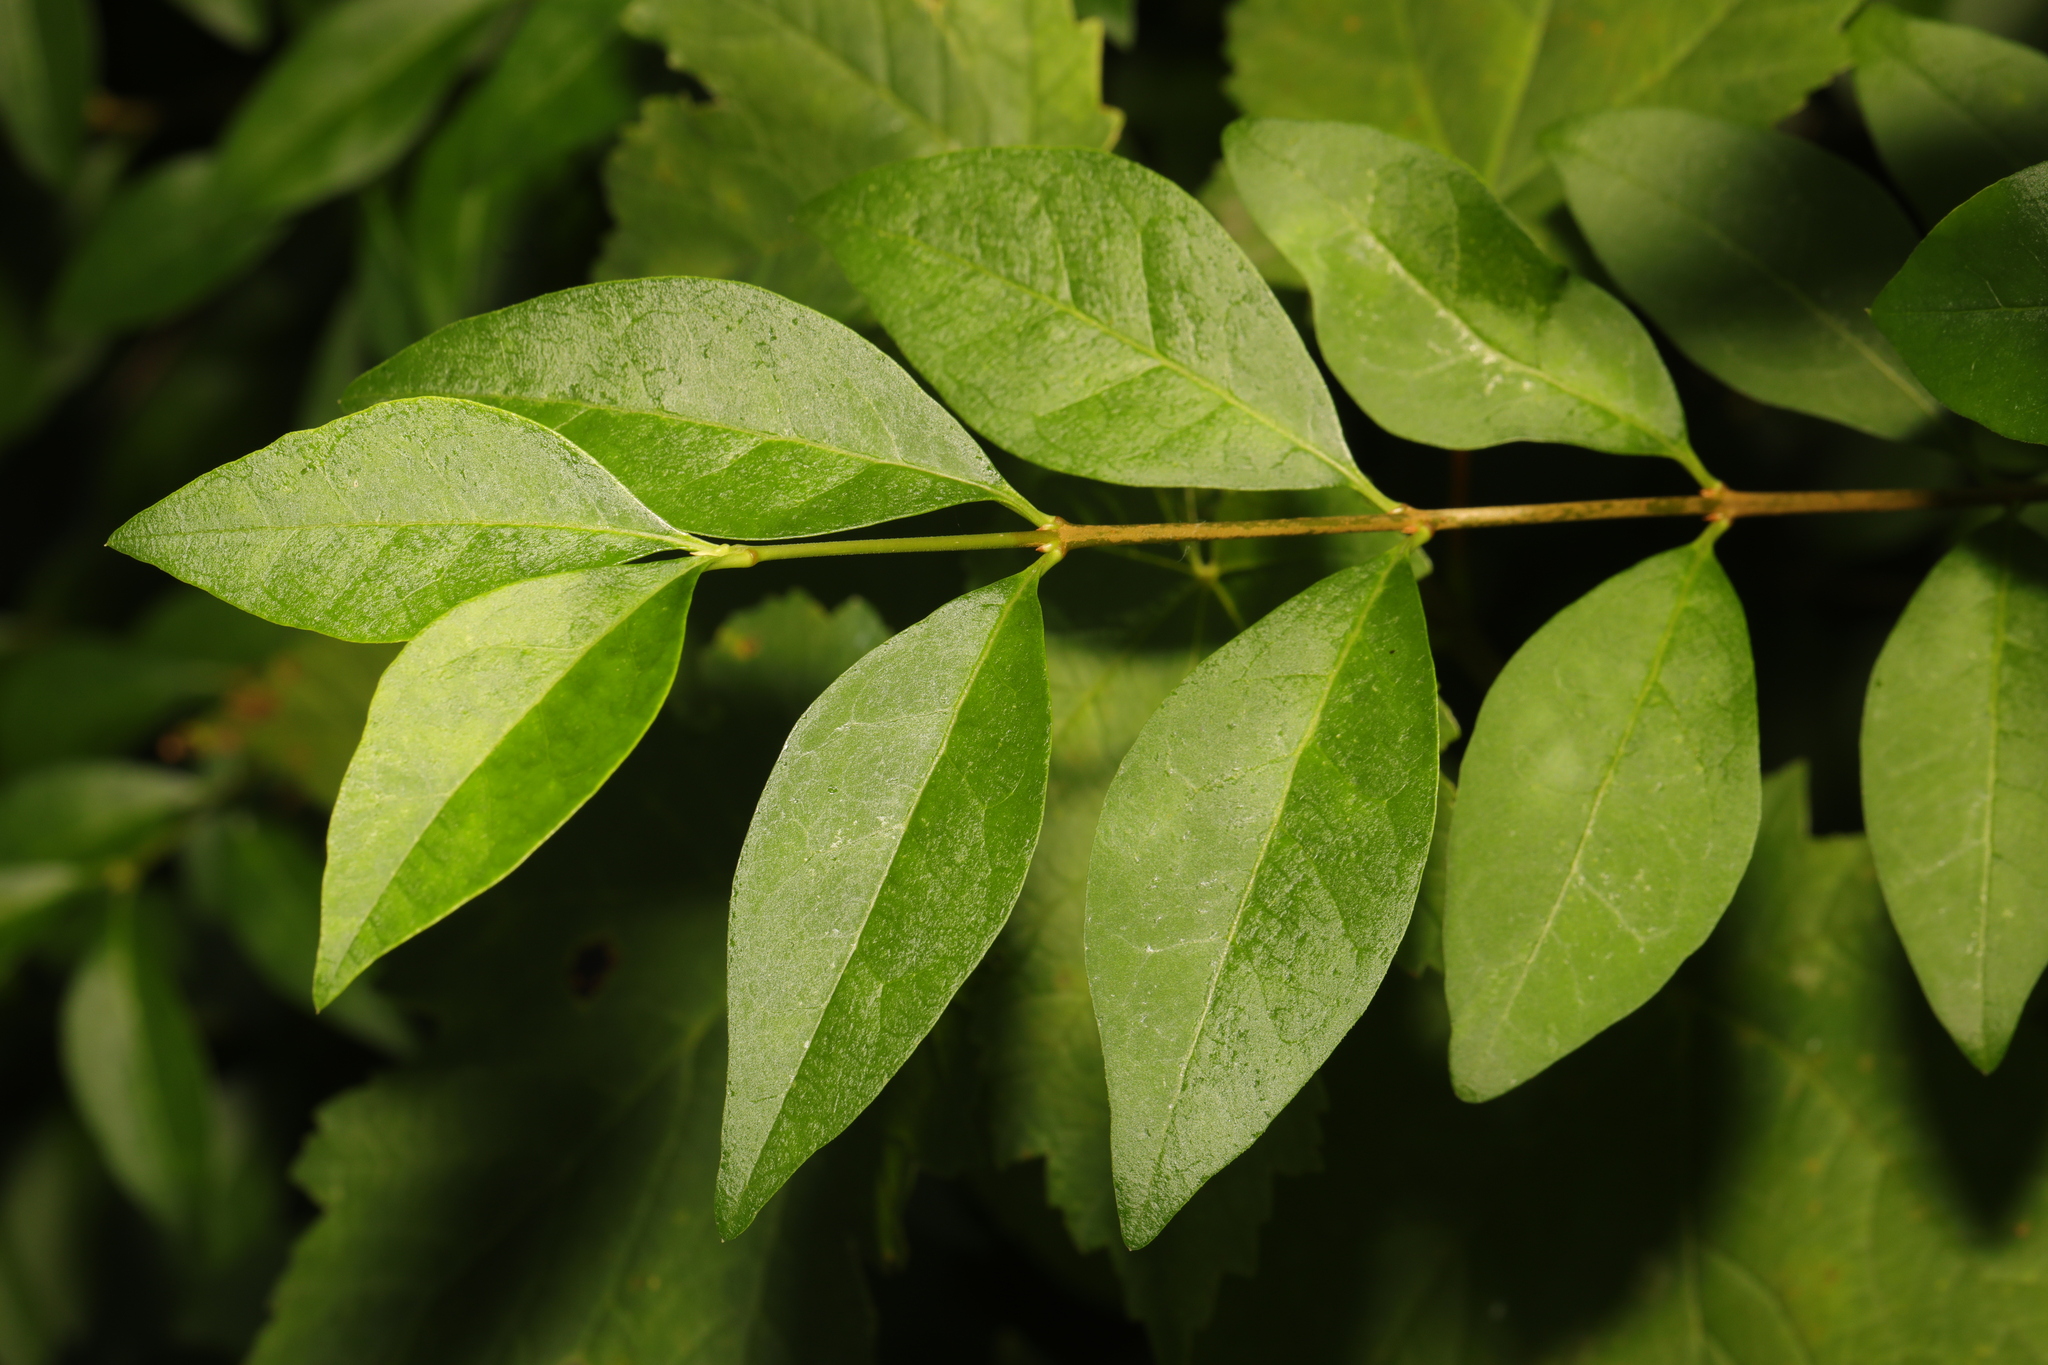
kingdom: Plantae
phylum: Tracheophyta
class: Magnoliopsida
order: Lamiales
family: Oleaceae
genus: Ligustrum
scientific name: Ligustrum ovalifolium
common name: California privet
